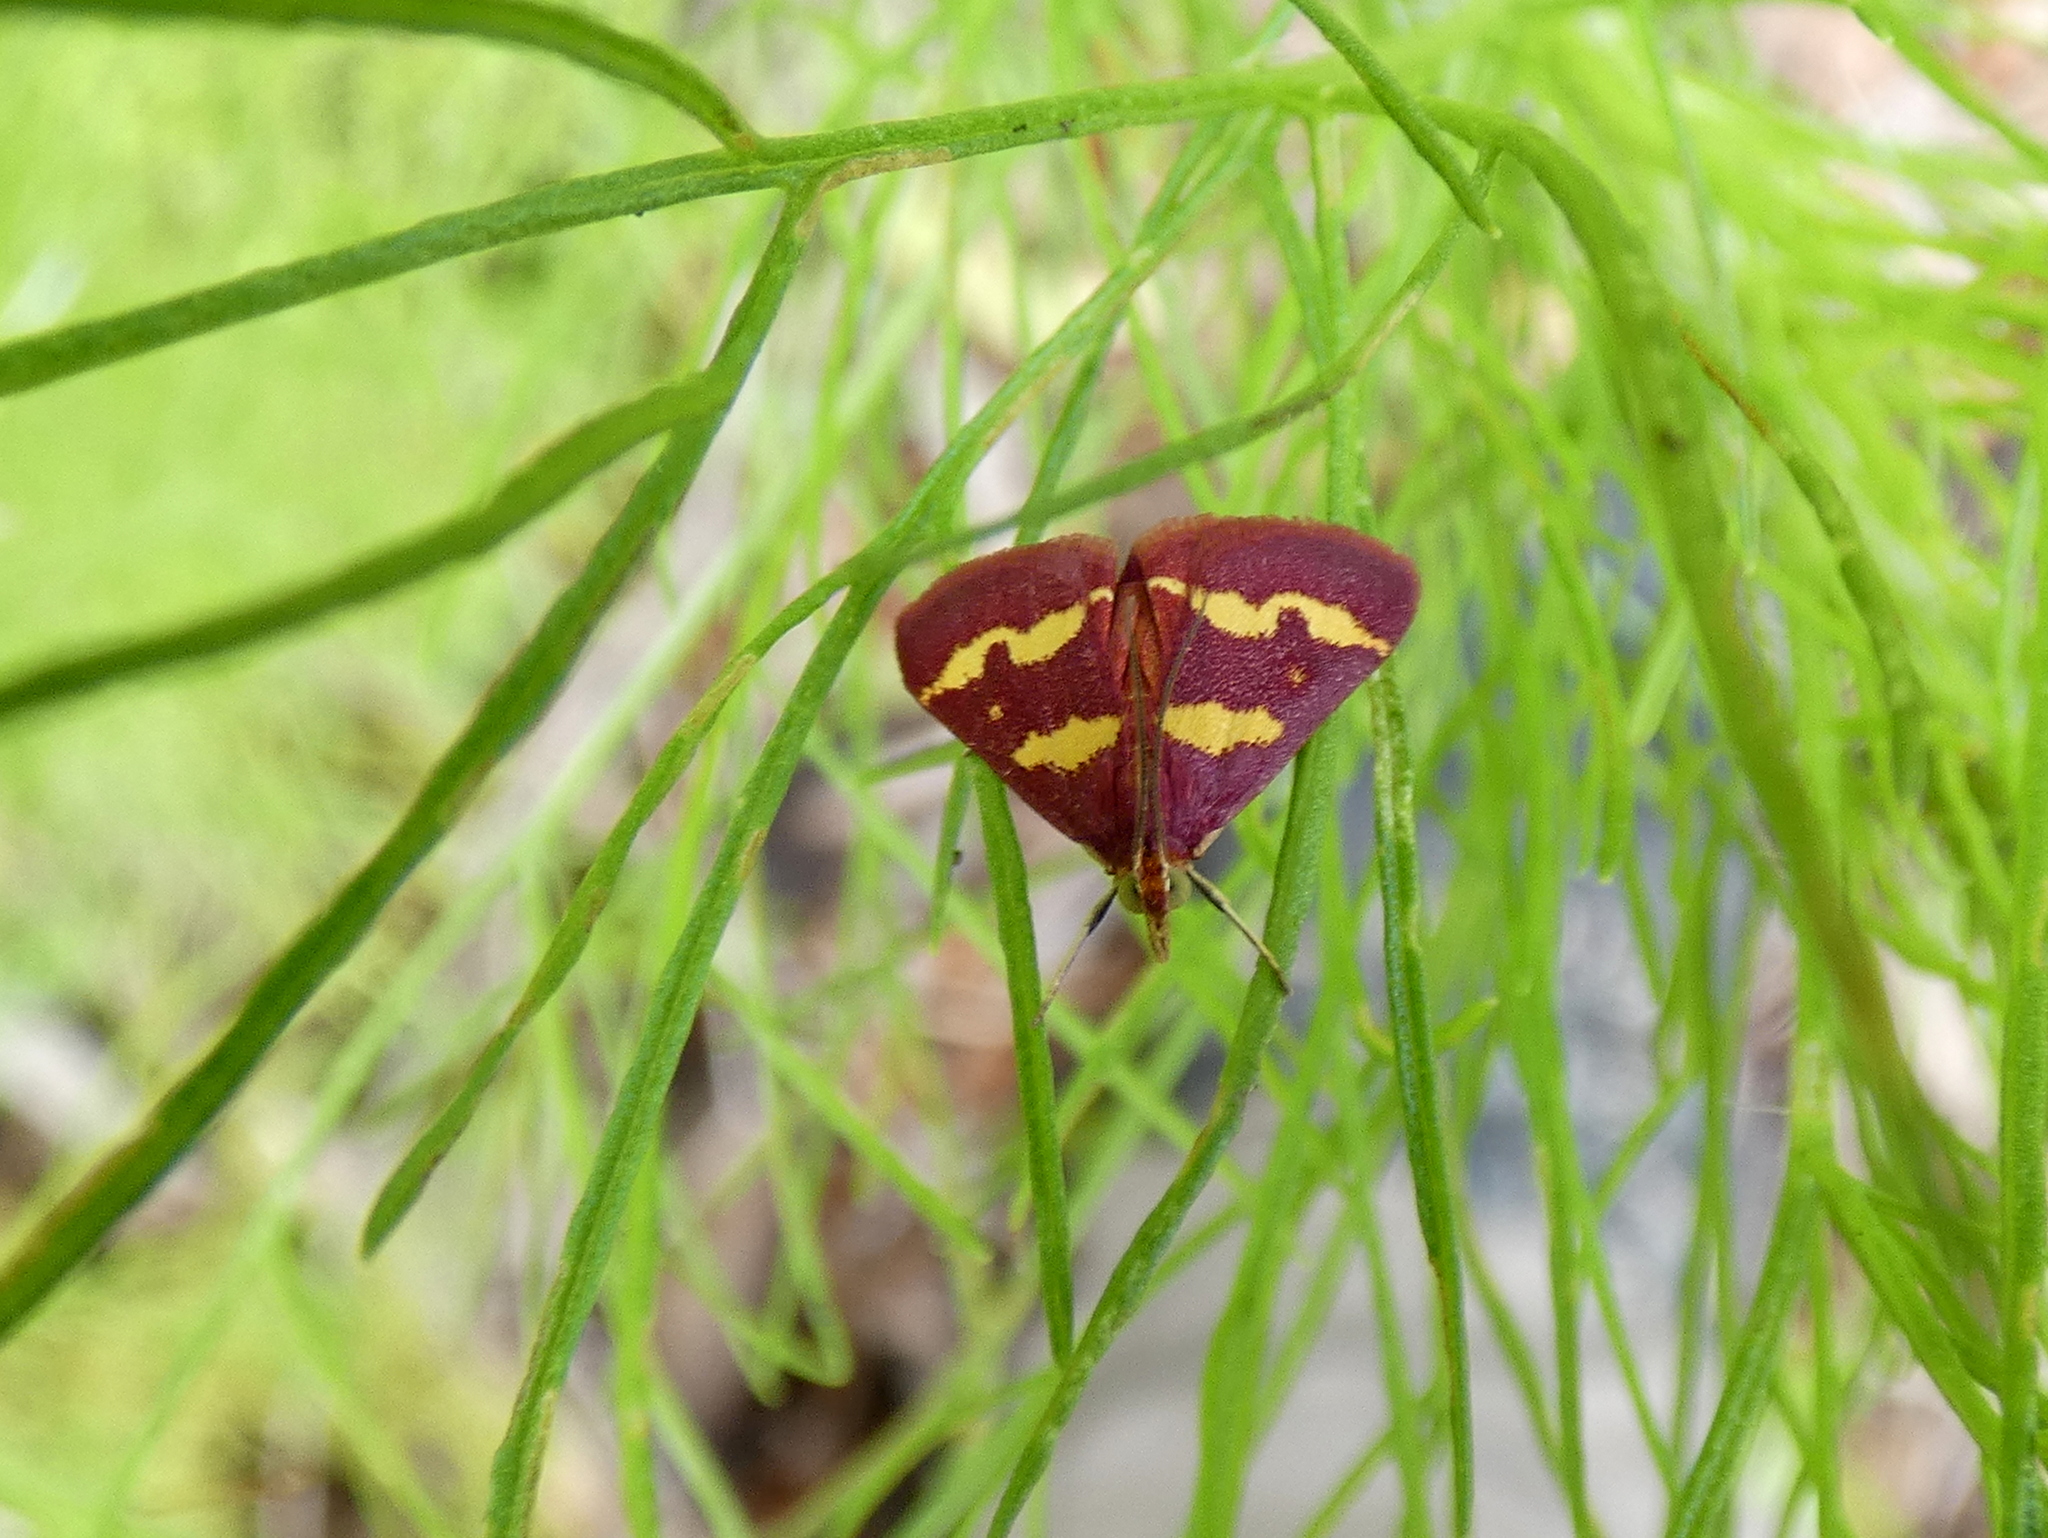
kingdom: Animalia
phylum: Arthropoda
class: Insecta
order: Lepidoptera
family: Crambidae
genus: Pyrausta
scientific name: Pyrausta tyralis
